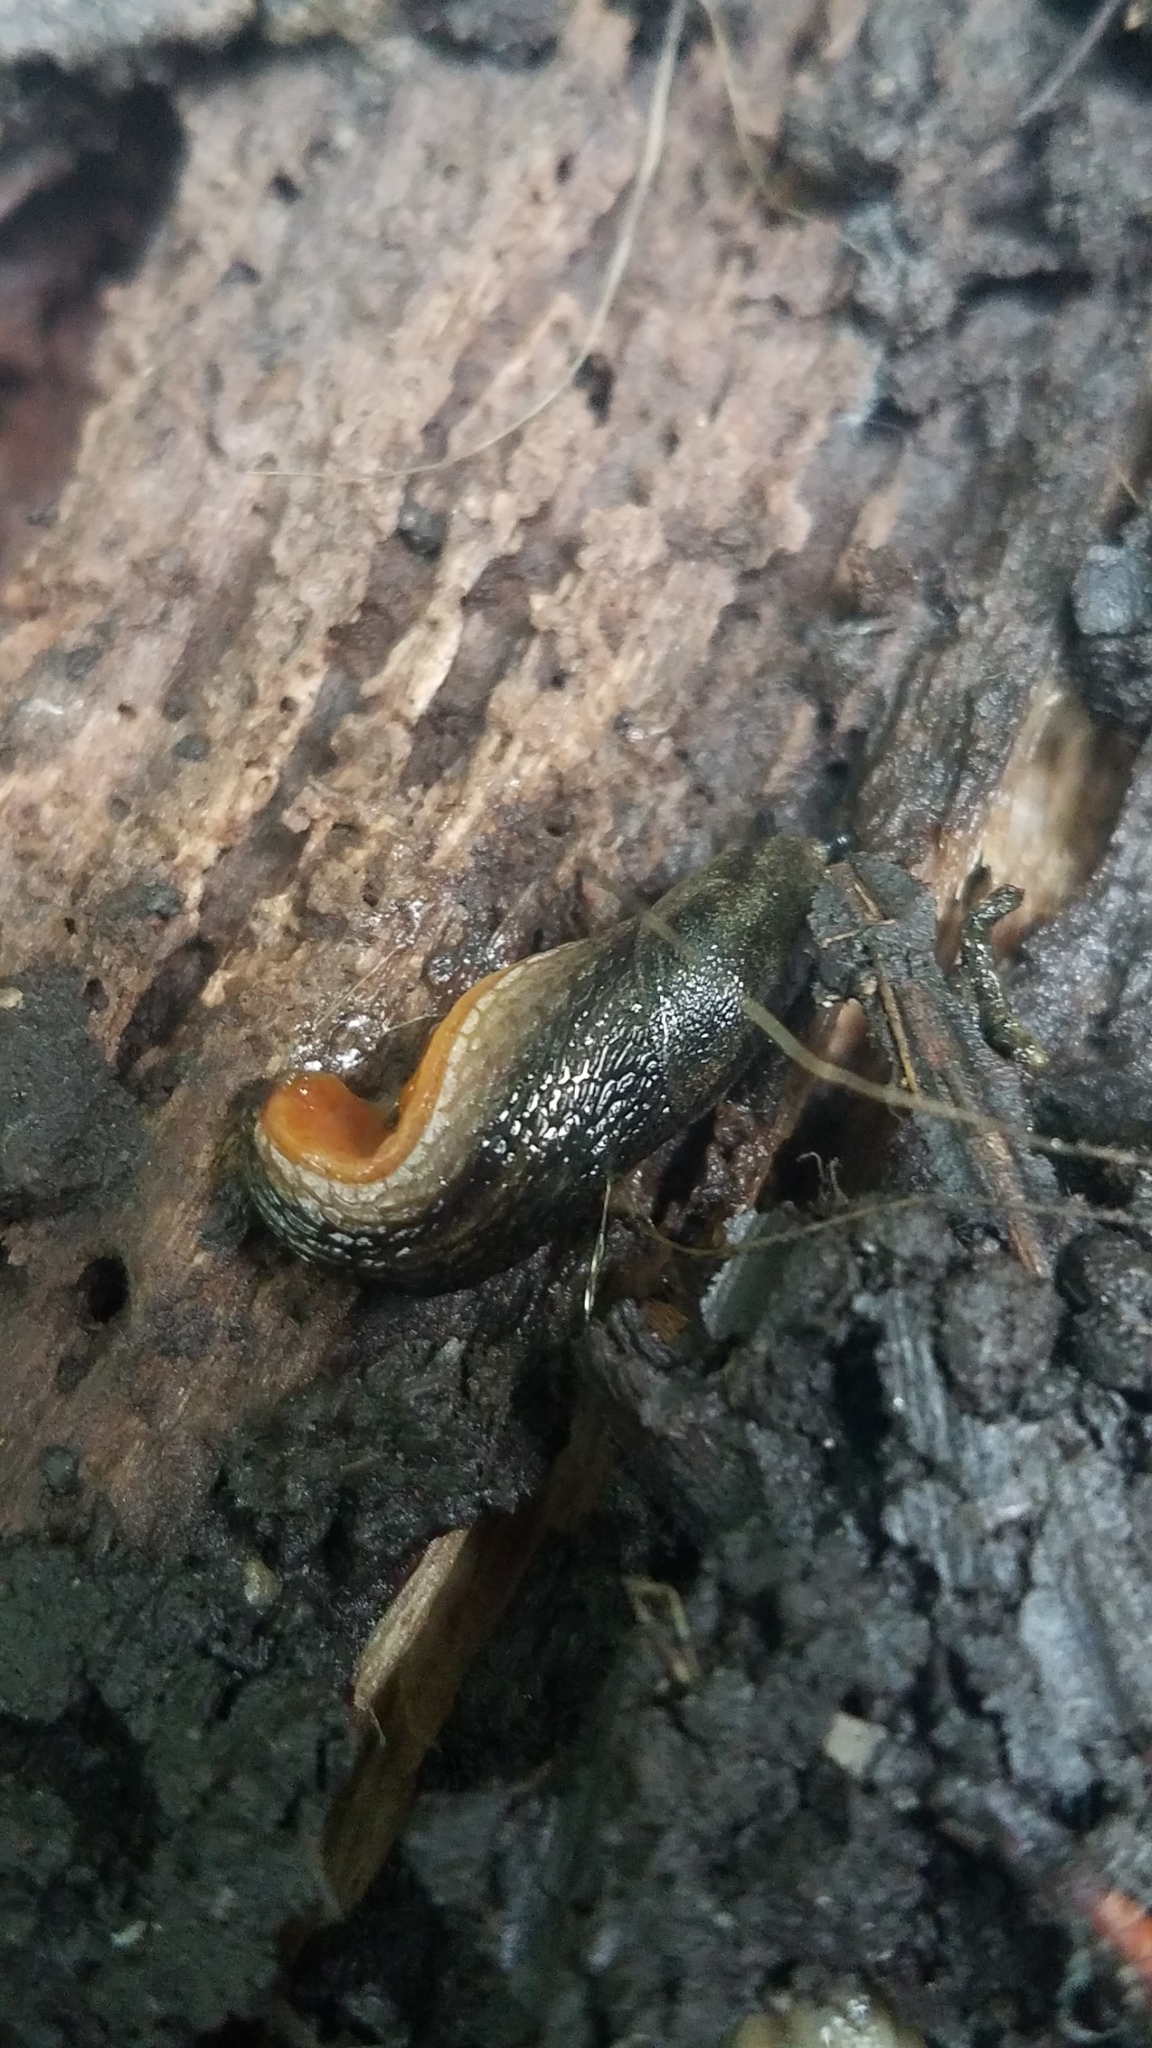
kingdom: Animalia
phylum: Mollusca
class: Gastropoda
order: Stylommatophora
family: Arionidae
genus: Arion
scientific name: Arion hortensis
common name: Garden arion
